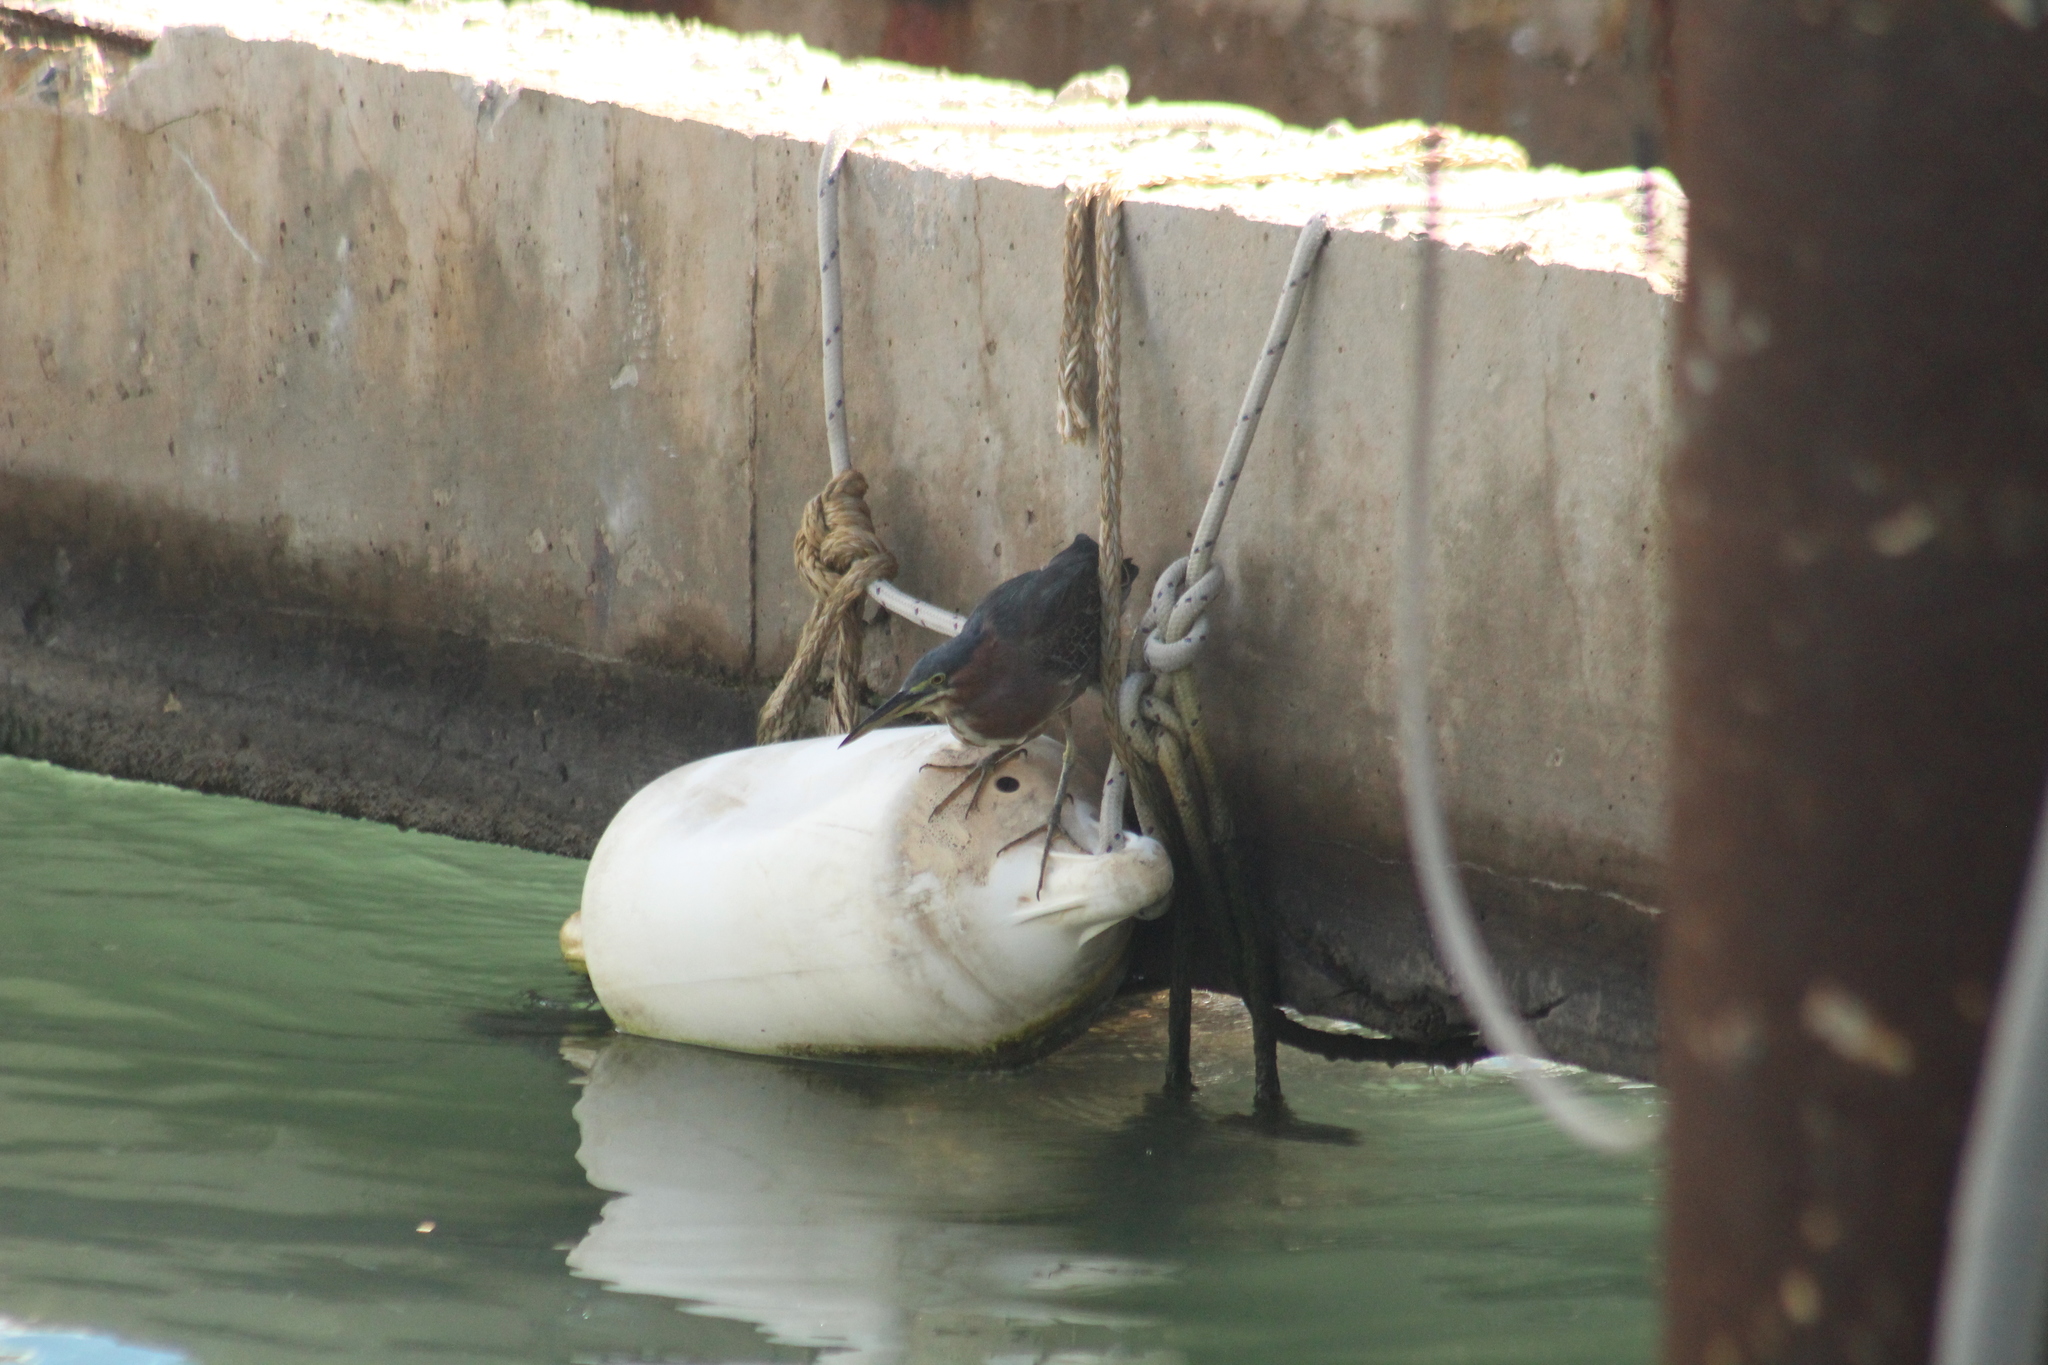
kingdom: Animalia
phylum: Chordata
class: Aves
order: Pelecaniformes
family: Ardeidae
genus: Butorides
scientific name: Butorides virescens
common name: Green heron
